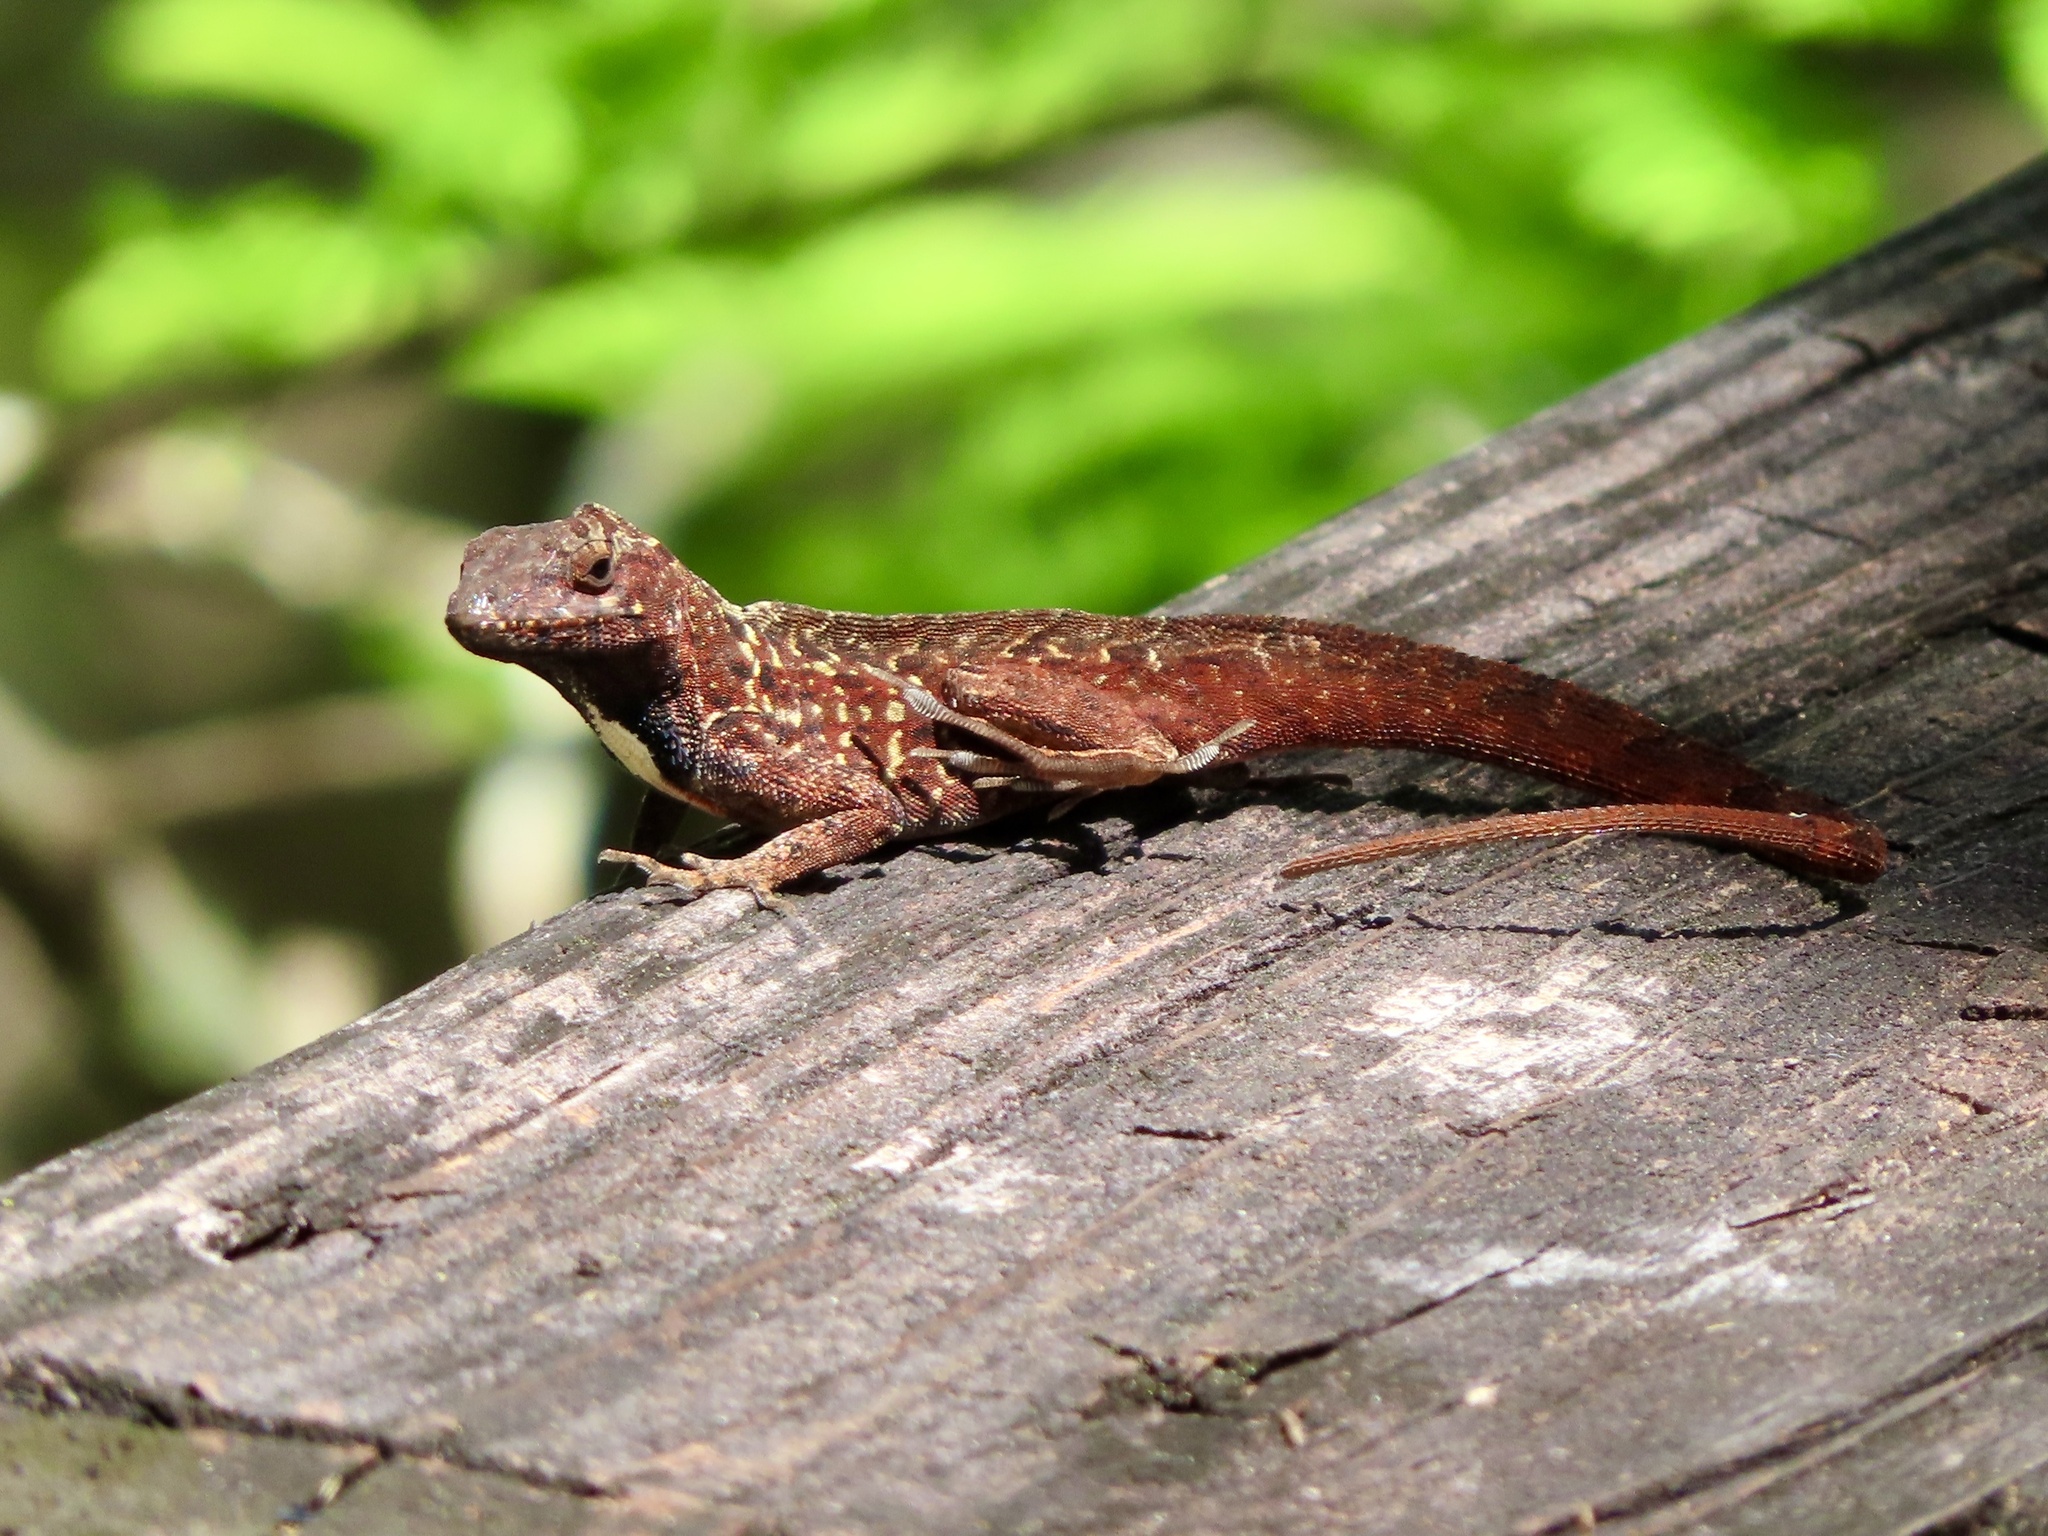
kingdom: Animalia
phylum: Chordata
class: Squamata
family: Dactyloidae
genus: Anolis
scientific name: Anolis sagrei
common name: Brown anole
